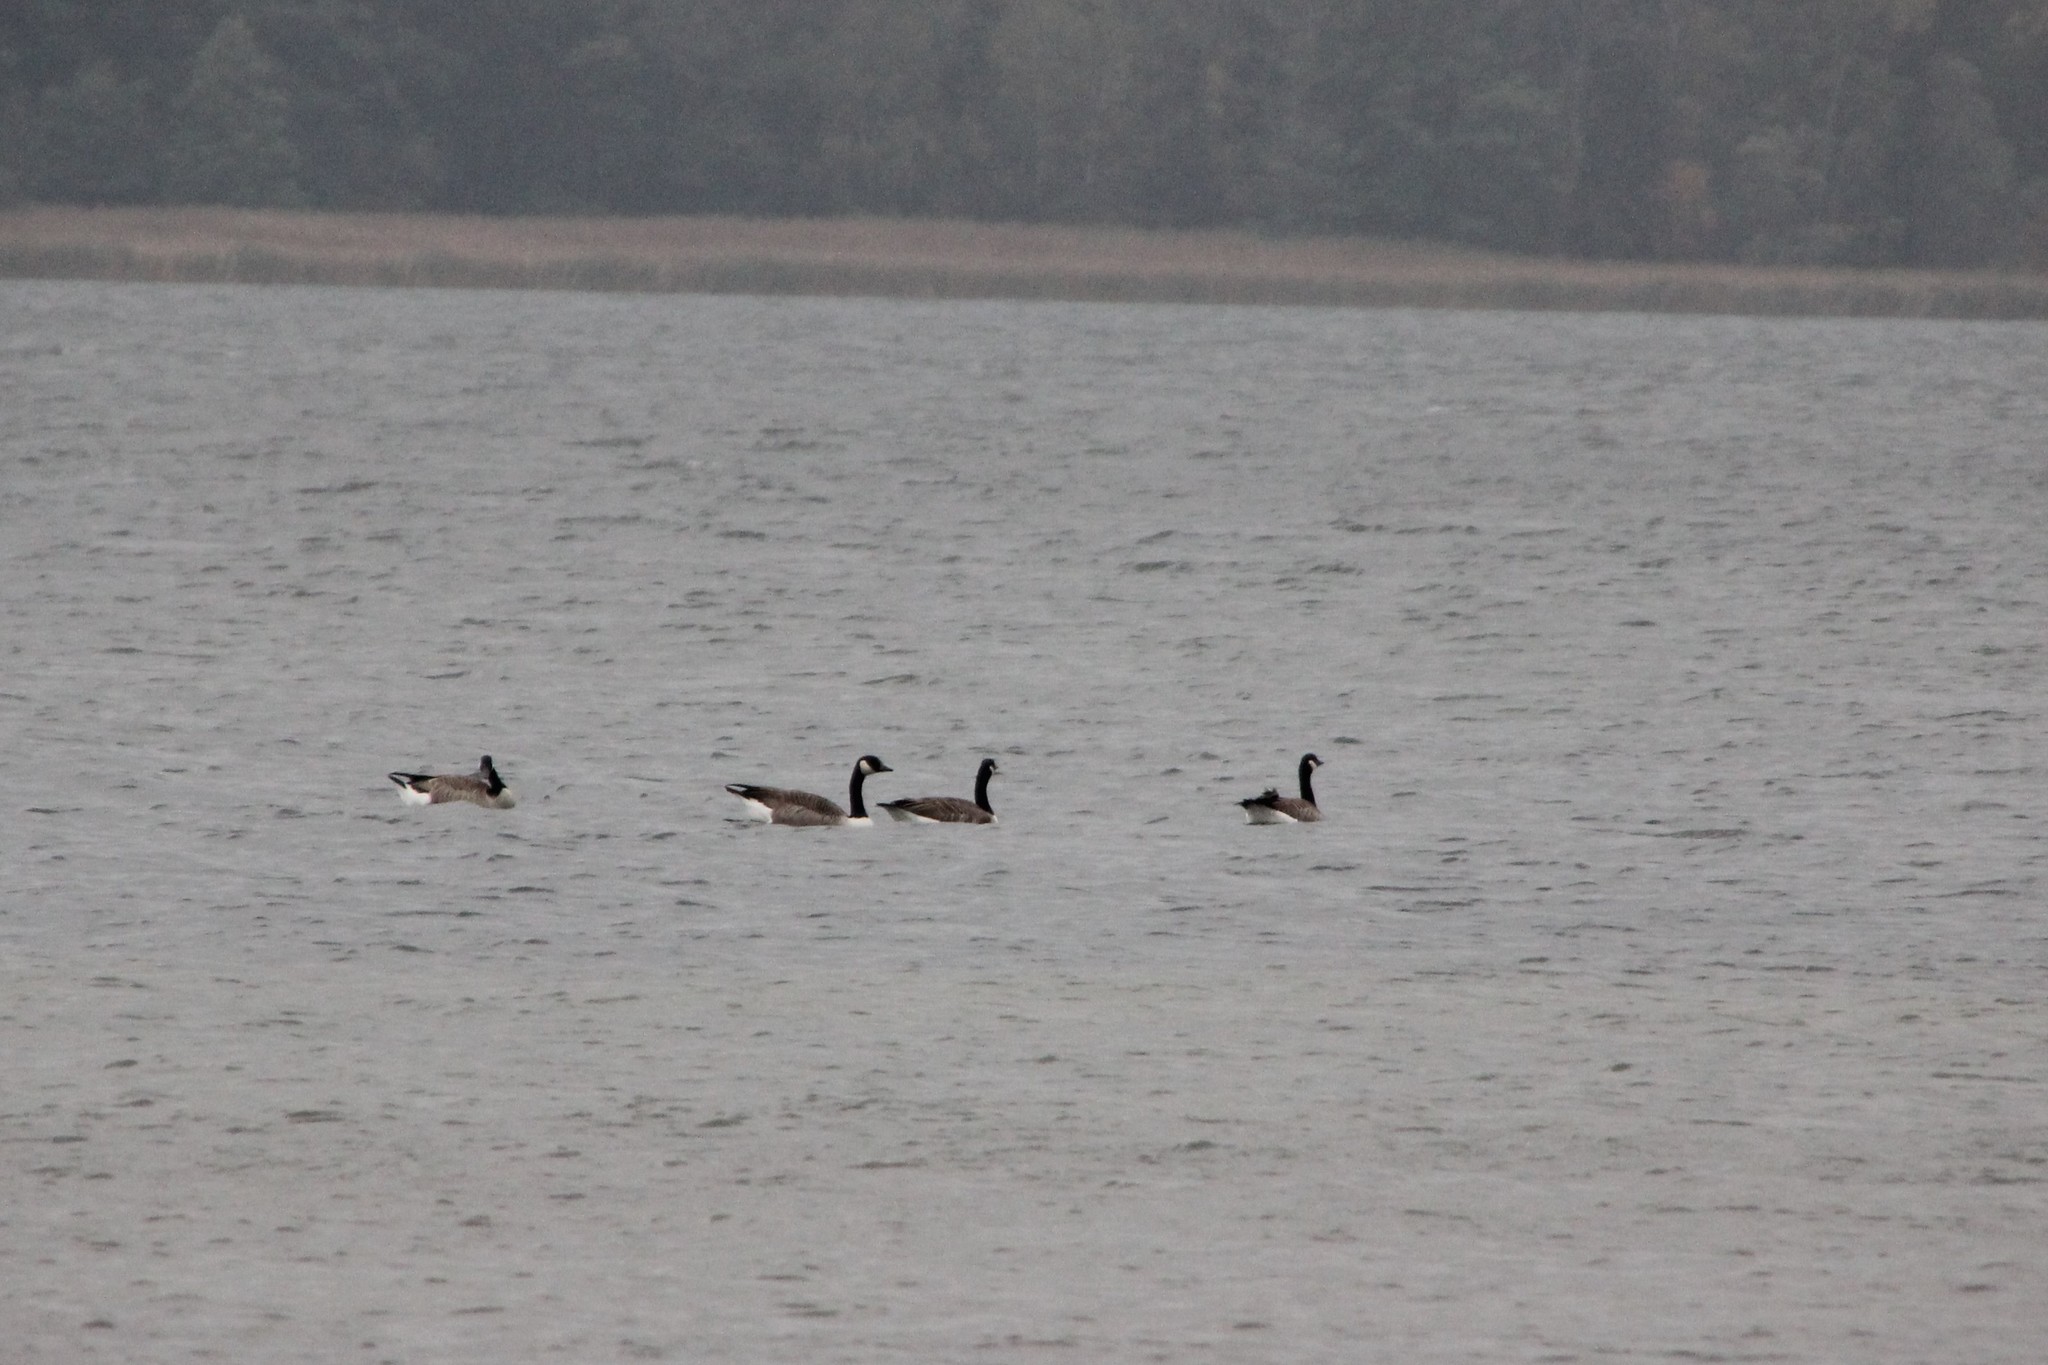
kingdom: Animalia
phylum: Chordata
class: Aves
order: Anseriformes
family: Anatidae
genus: Branta
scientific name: Branta canadensis
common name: Canada goose
